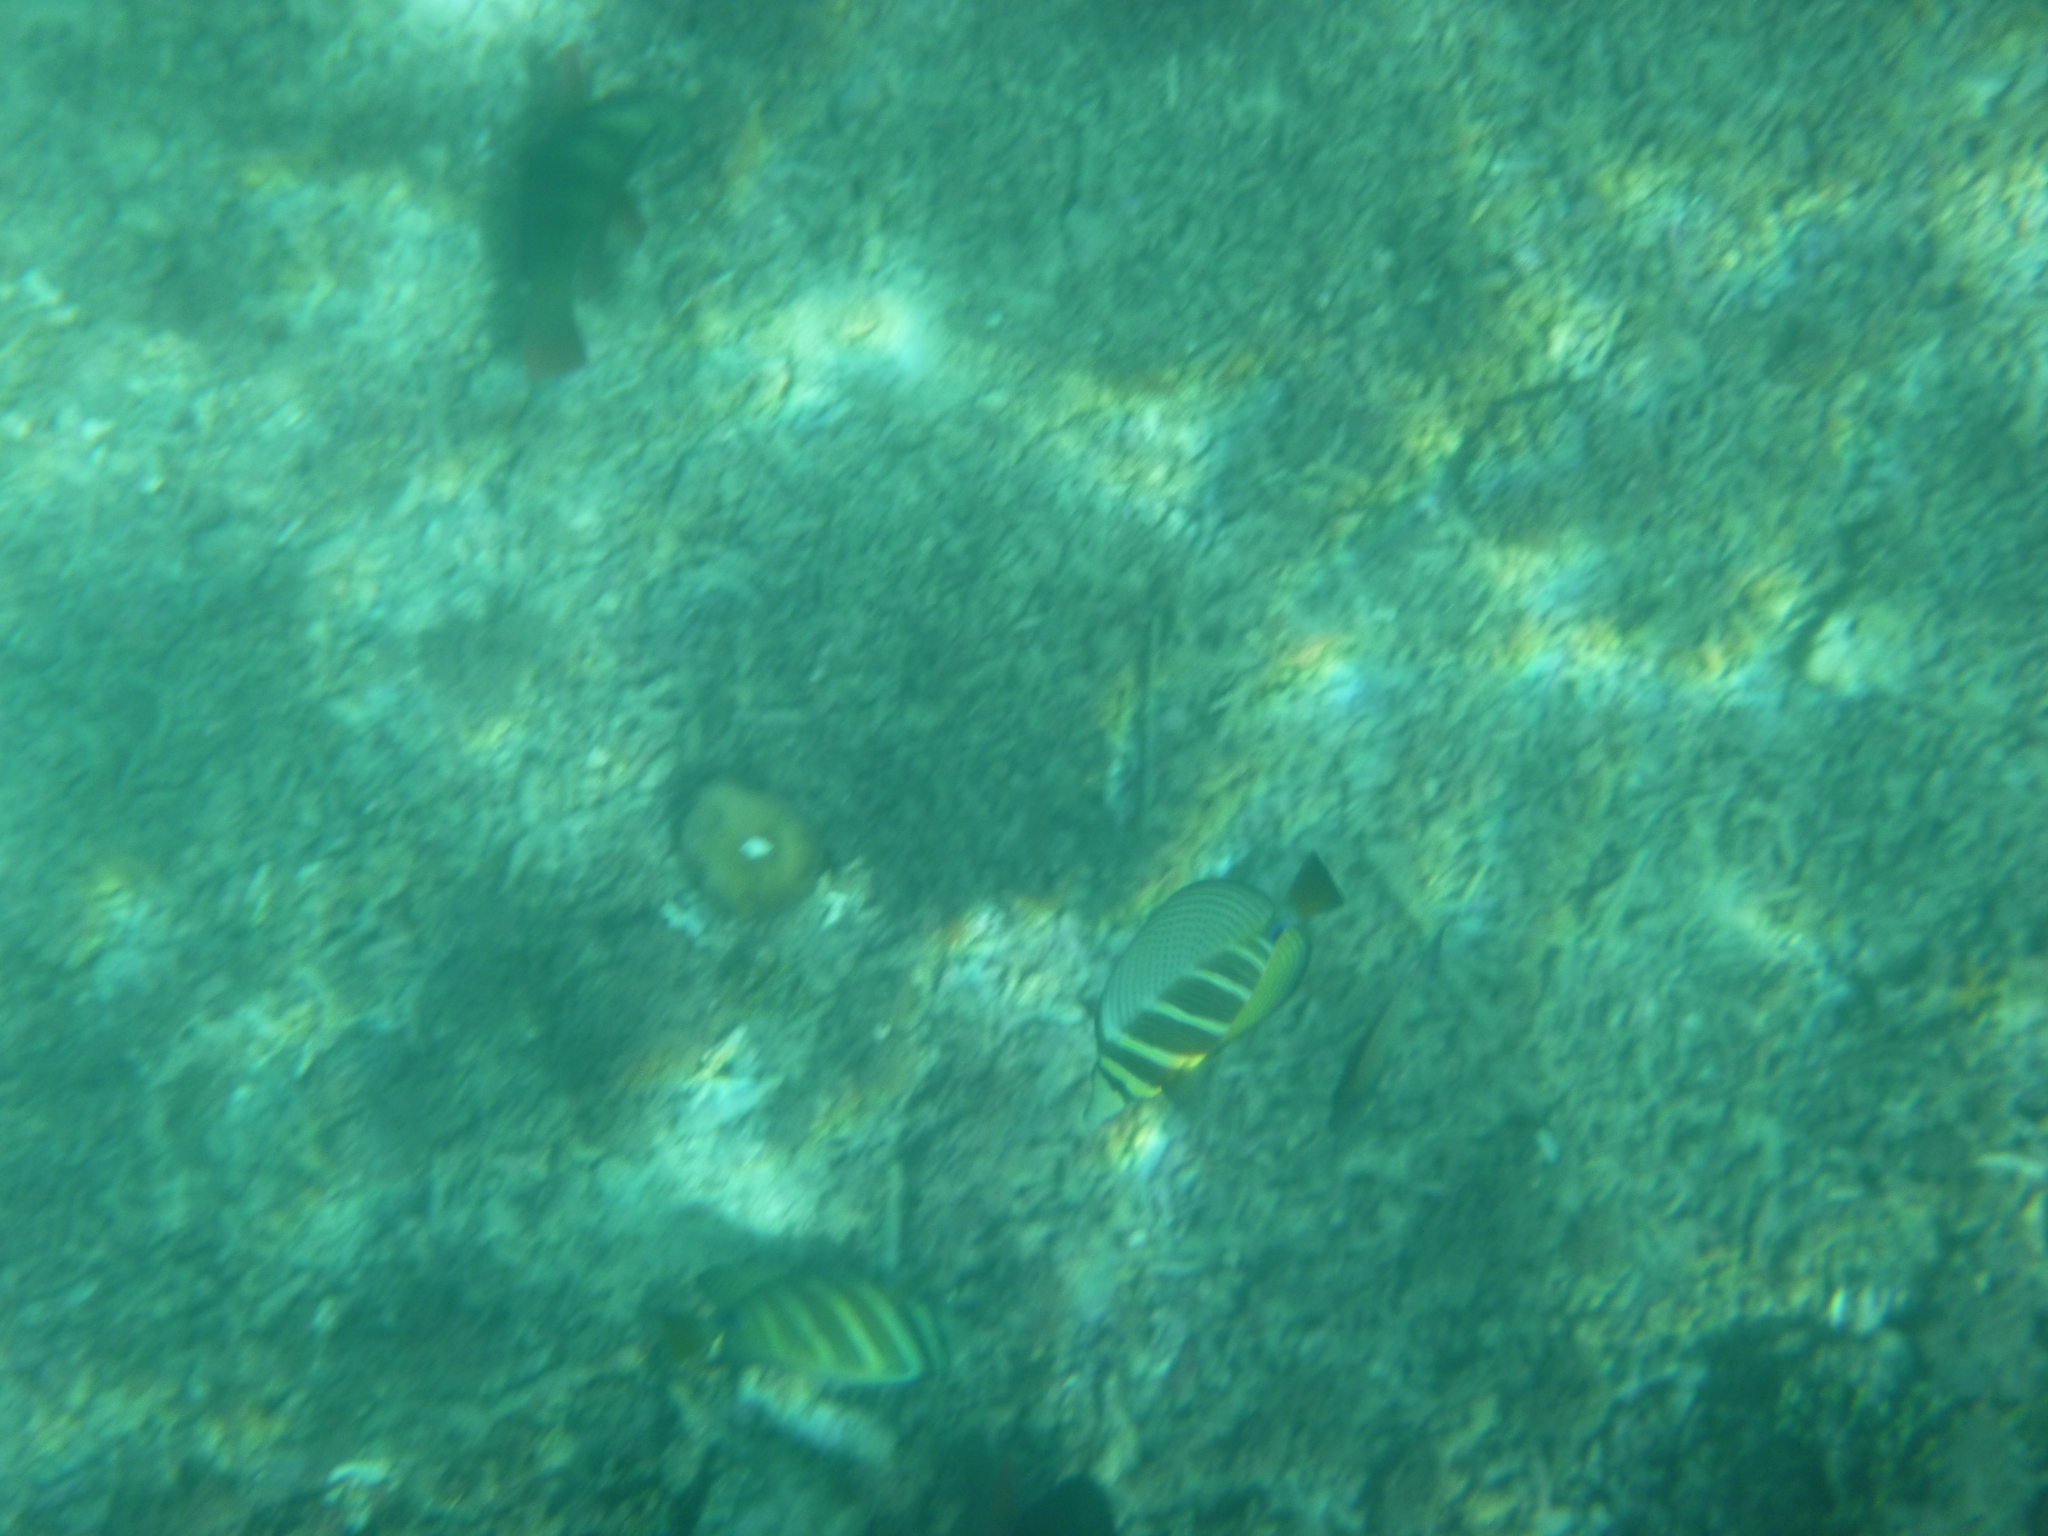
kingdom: Animalia
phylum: Chordata
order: Perciformes
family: Acanthuridae
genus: Zebrasoma
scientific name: Zebrasoma veliferum
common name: Sailfin surgeonfish
